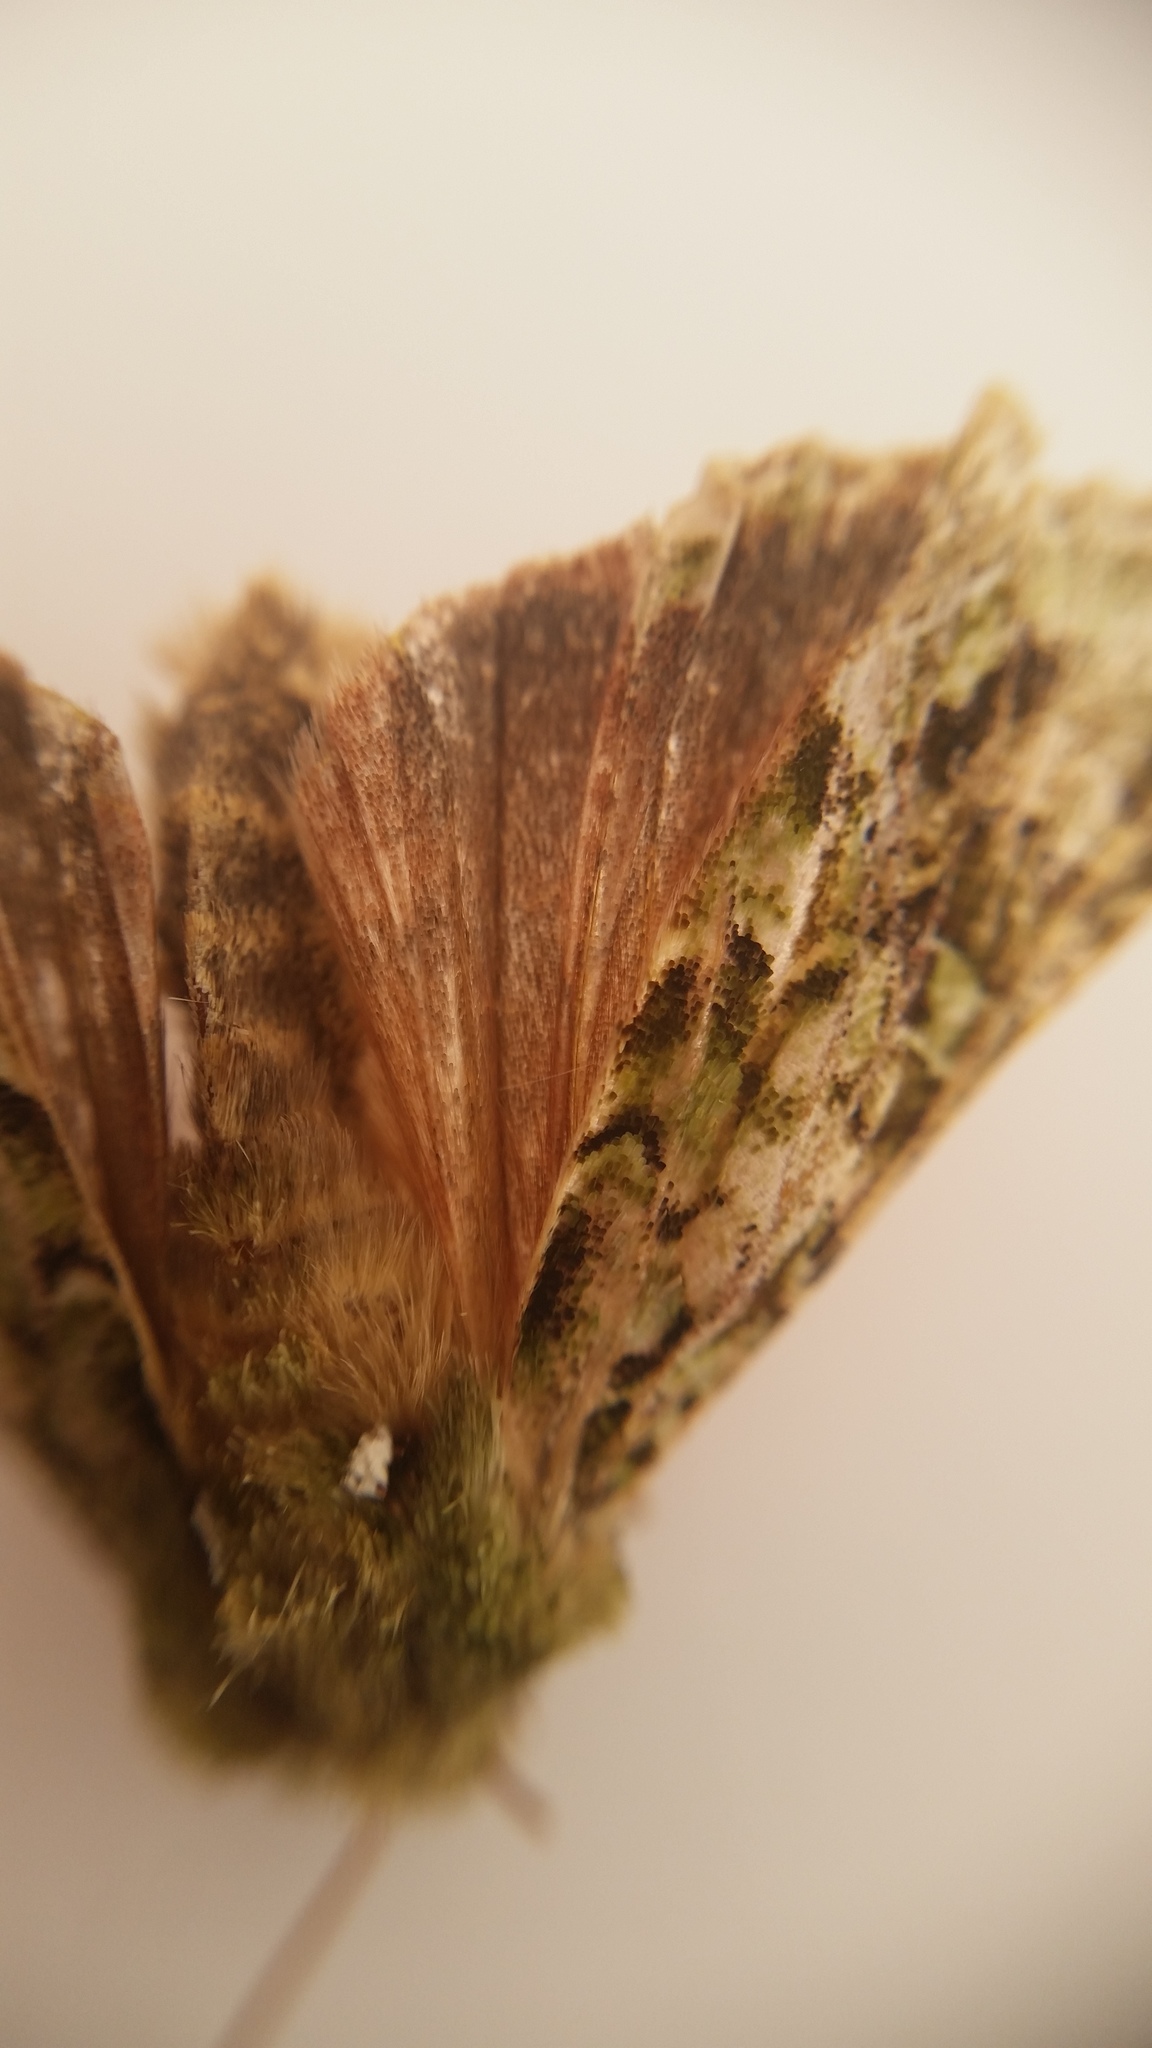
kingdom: Animalia
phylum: Arthropoda
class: Insecta
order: Lepidoptera
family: Noctuidae
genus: Feredayia
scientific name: Feredayia grammosa
